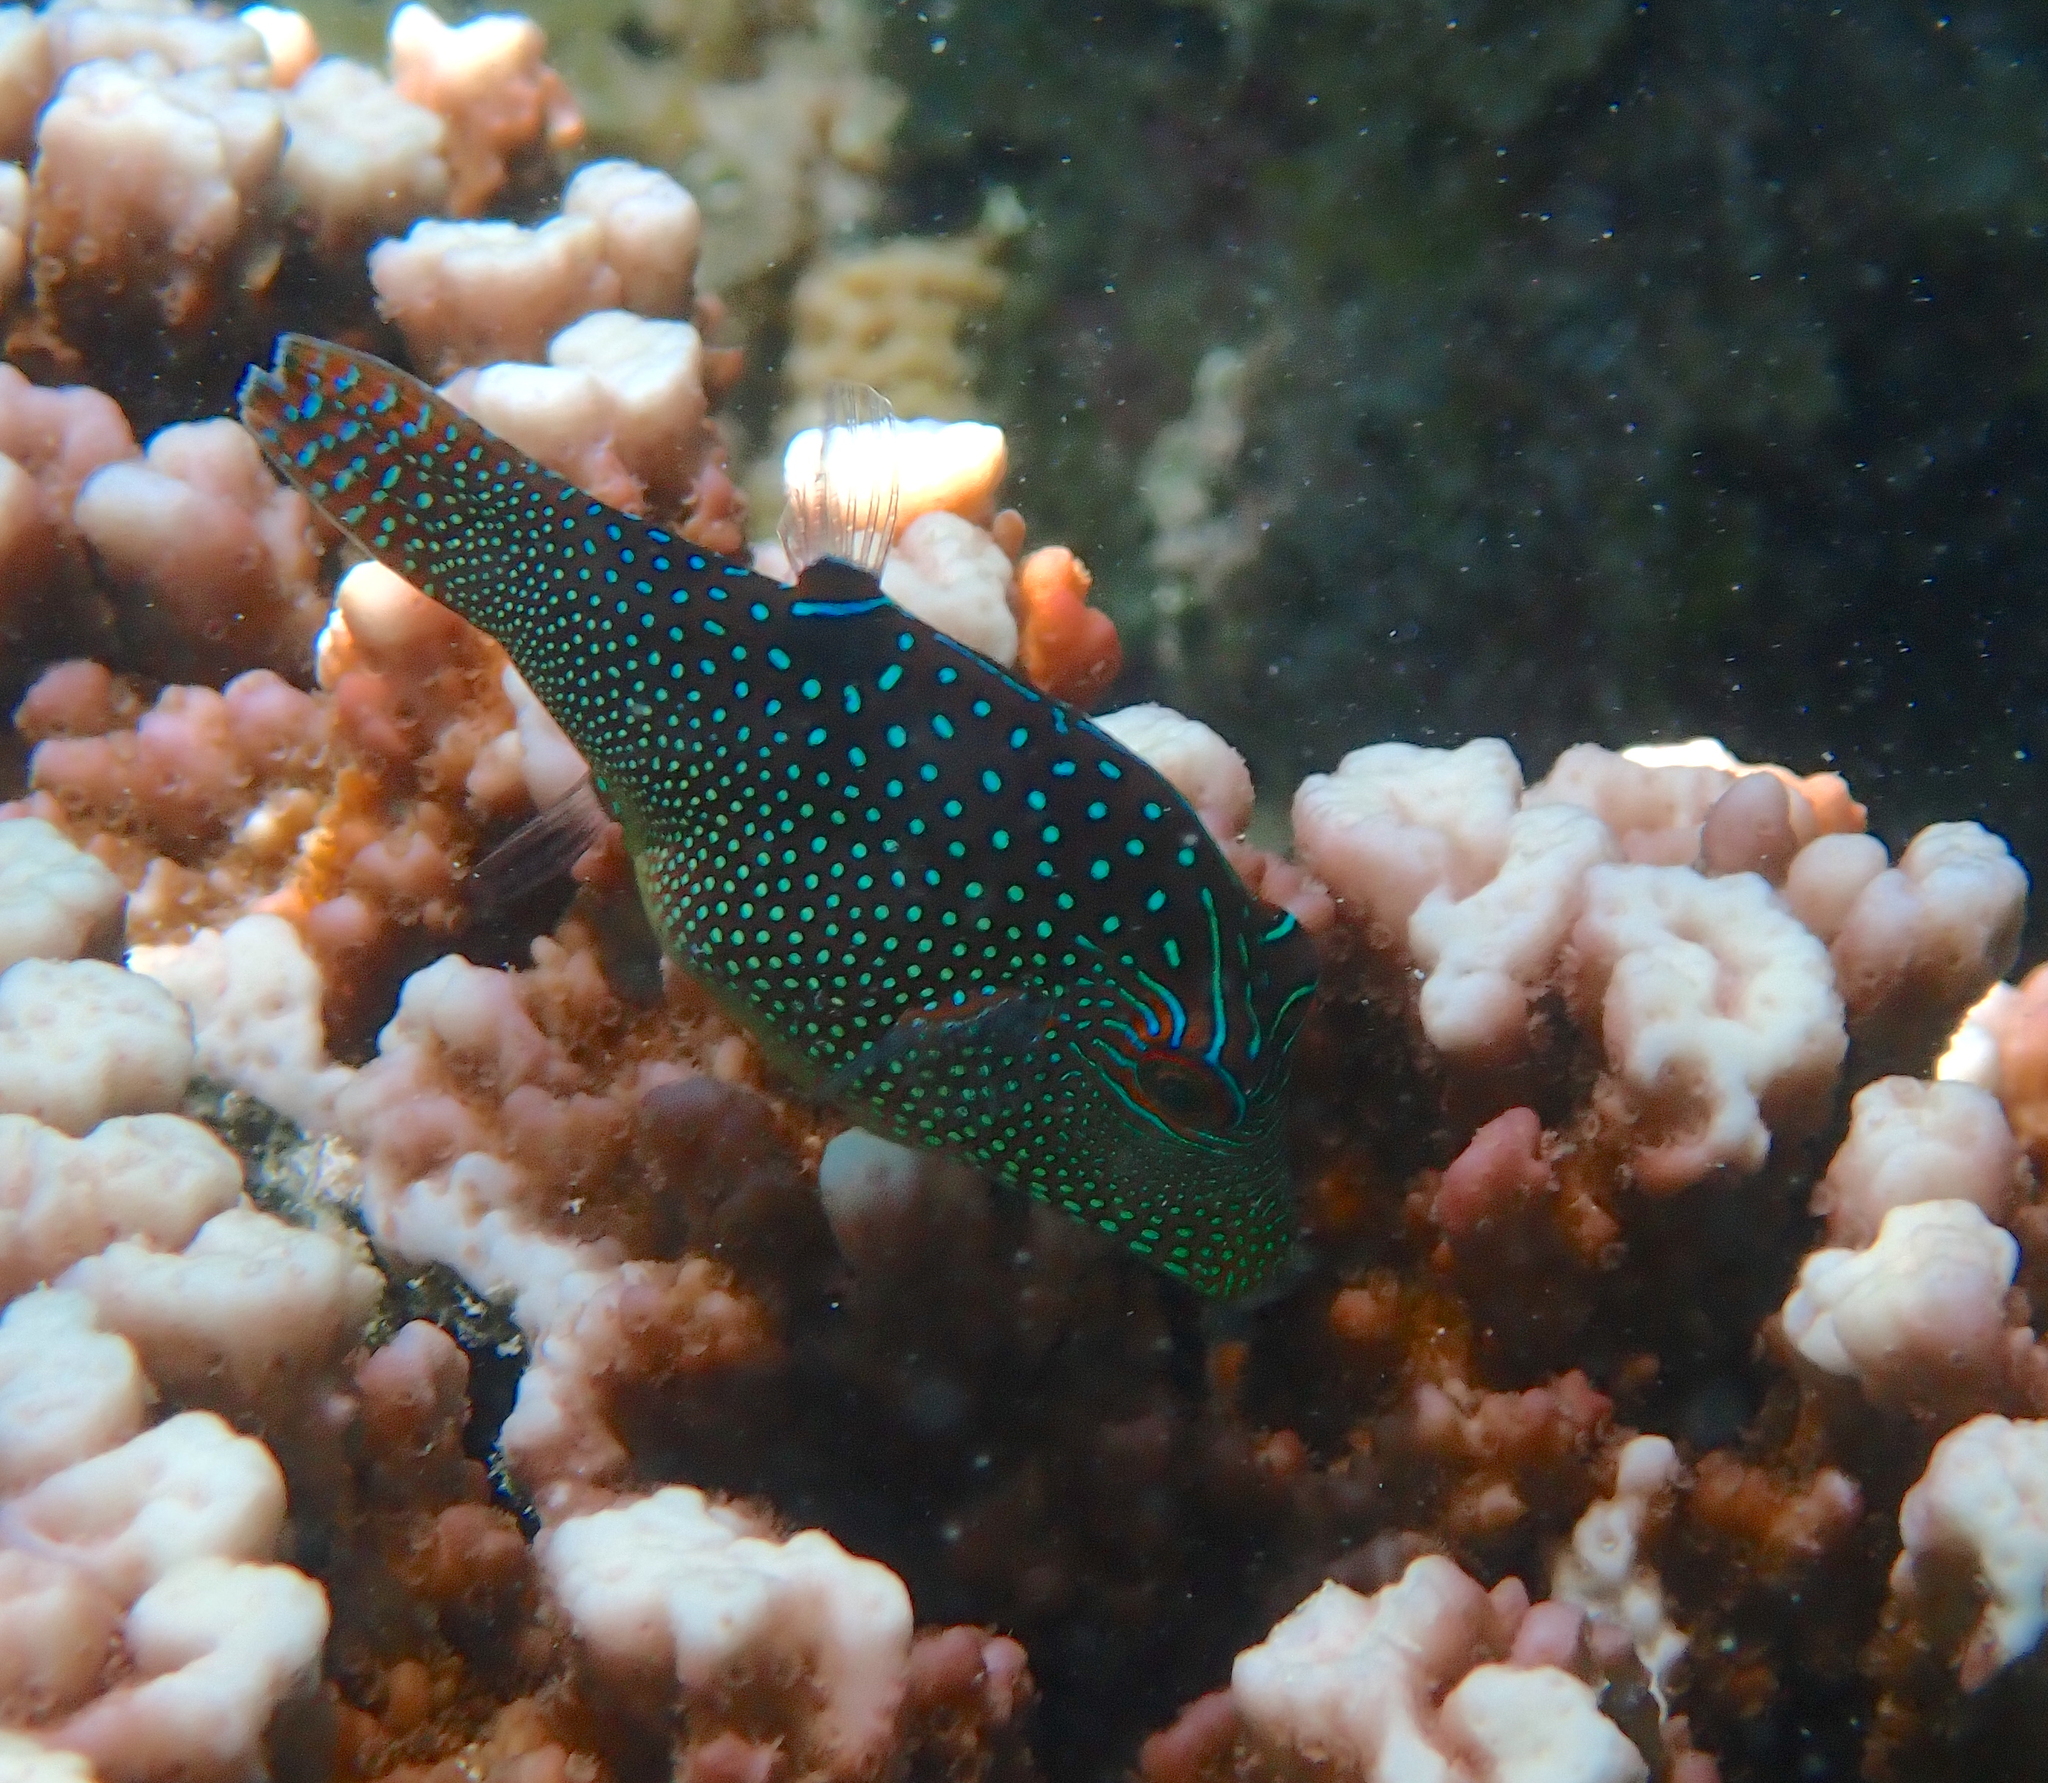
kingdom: Animalia
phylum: Chordata
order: Tetraodontiformes
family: Tetraodontidae
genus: Canthigaster
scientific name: Canthigaster solandri
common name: False-eye toby
